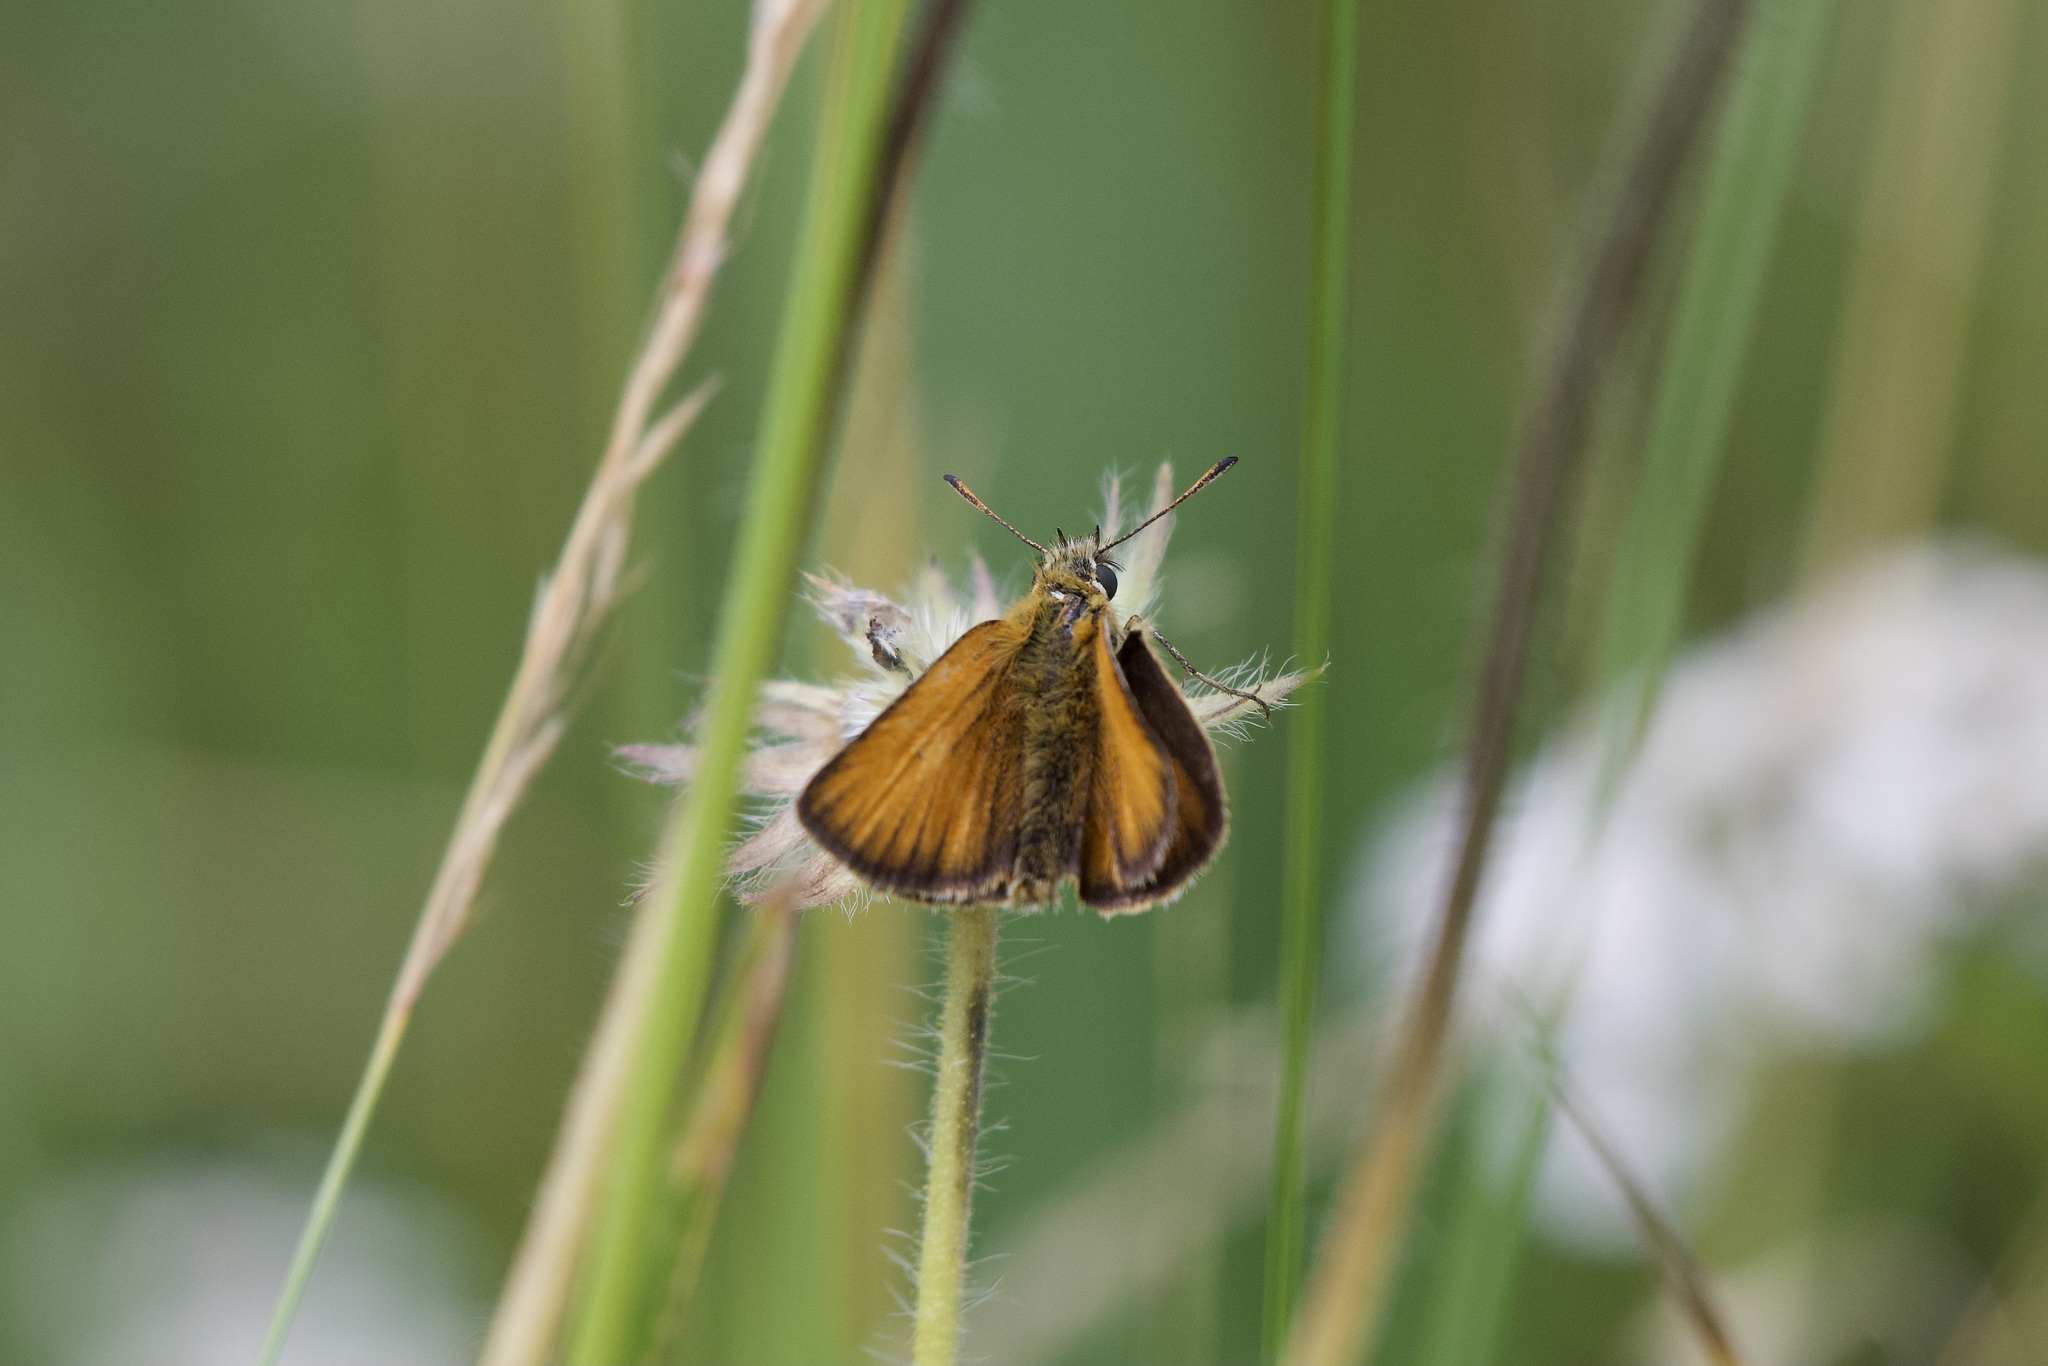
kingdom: Animalia
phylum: Arthropoda
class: Insecta
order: Lepidoptera
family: Hesperiidae
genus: Thymelicus
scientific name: Thymelicus lineola
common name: Essex skipper
